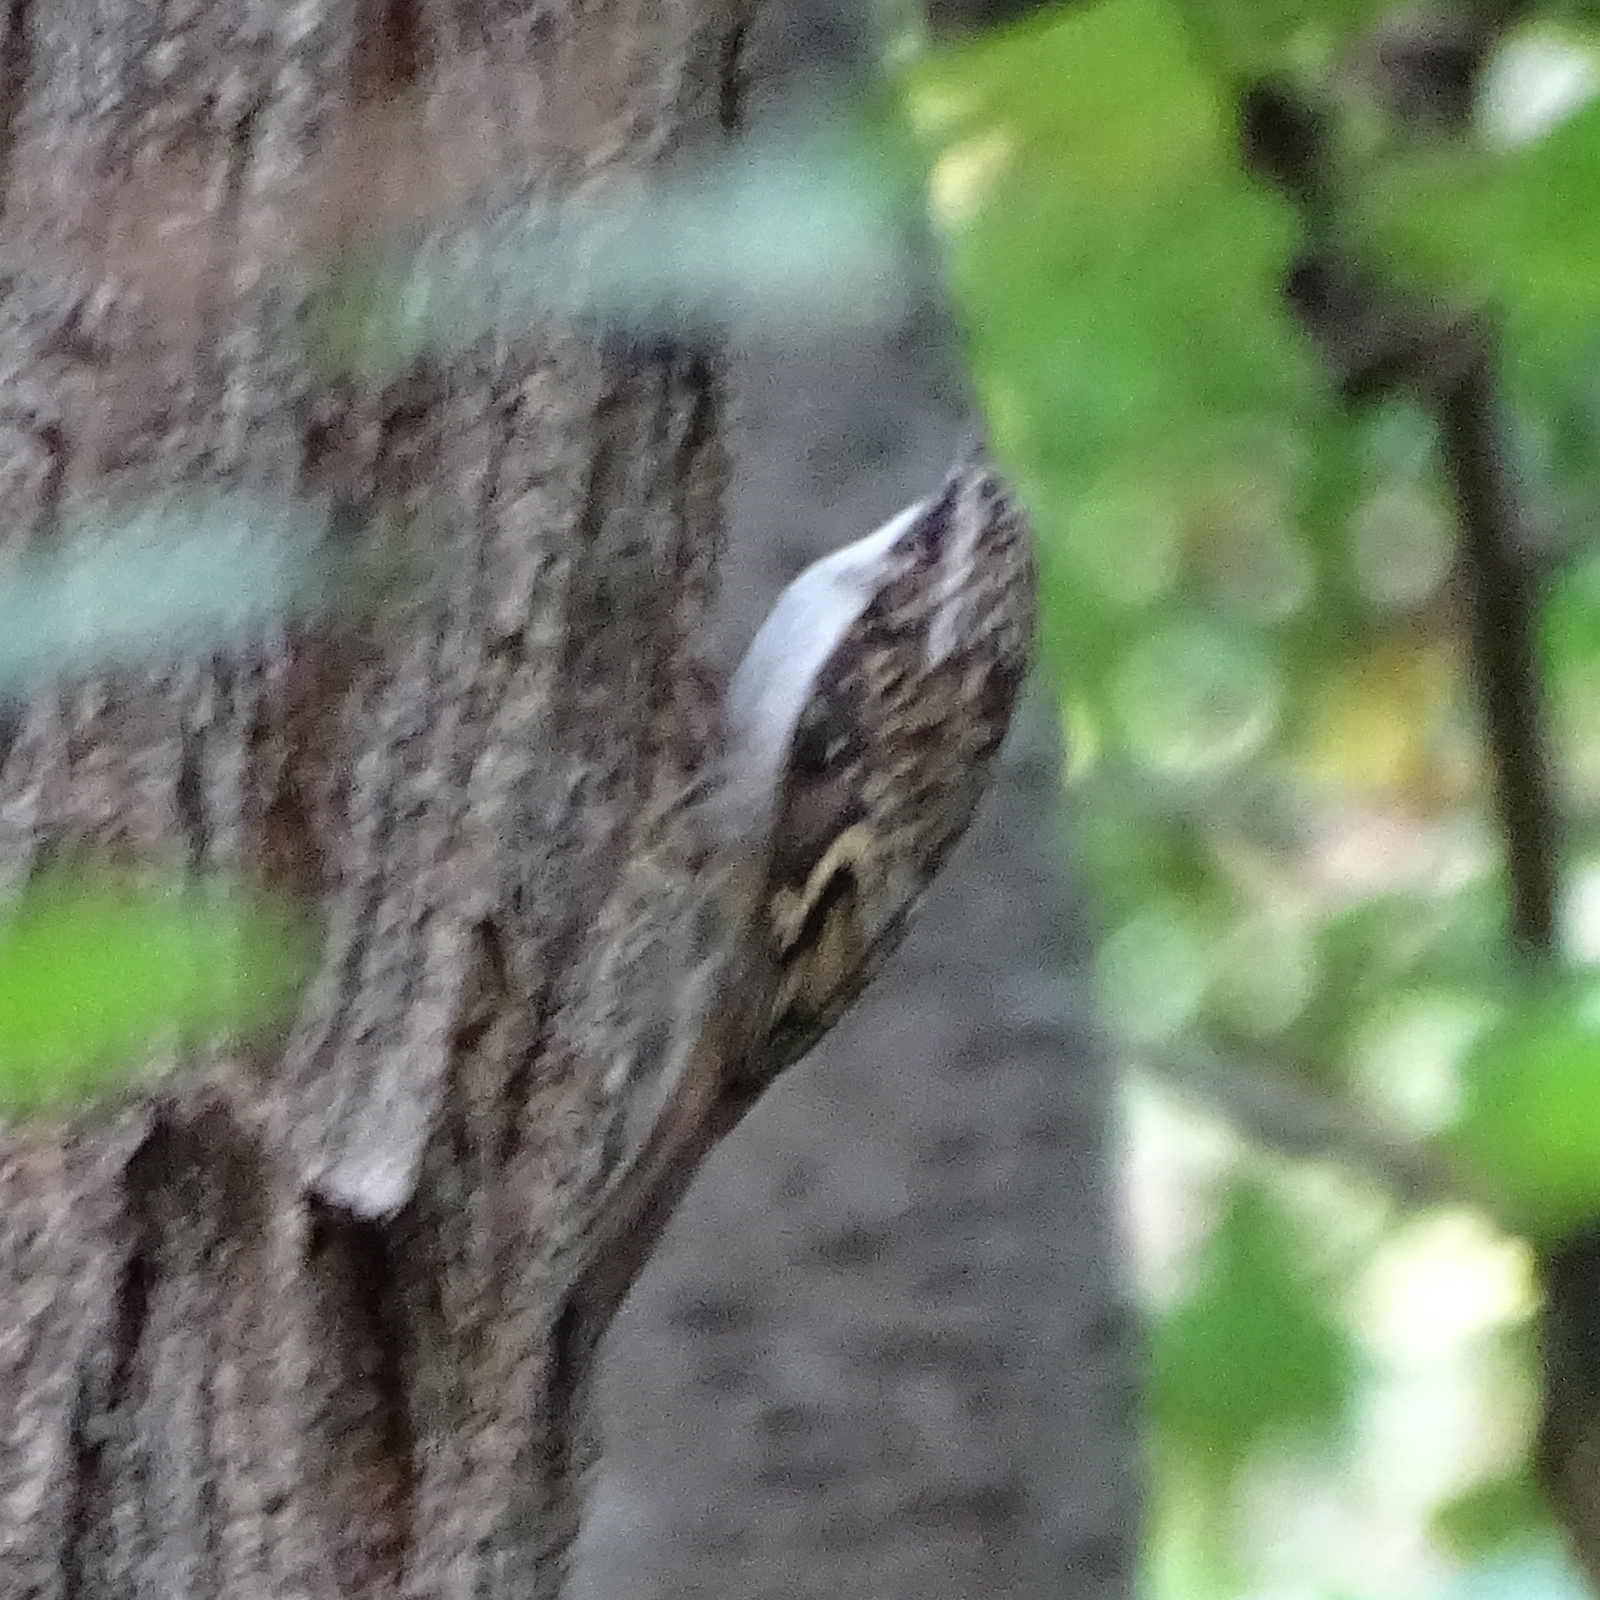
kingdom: Animalia
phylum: Chordata
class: Aves
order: Passeriformes
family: Certhiidae
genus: Certhia
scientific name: Certhia familiaris
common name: Eurasian treecreeper
